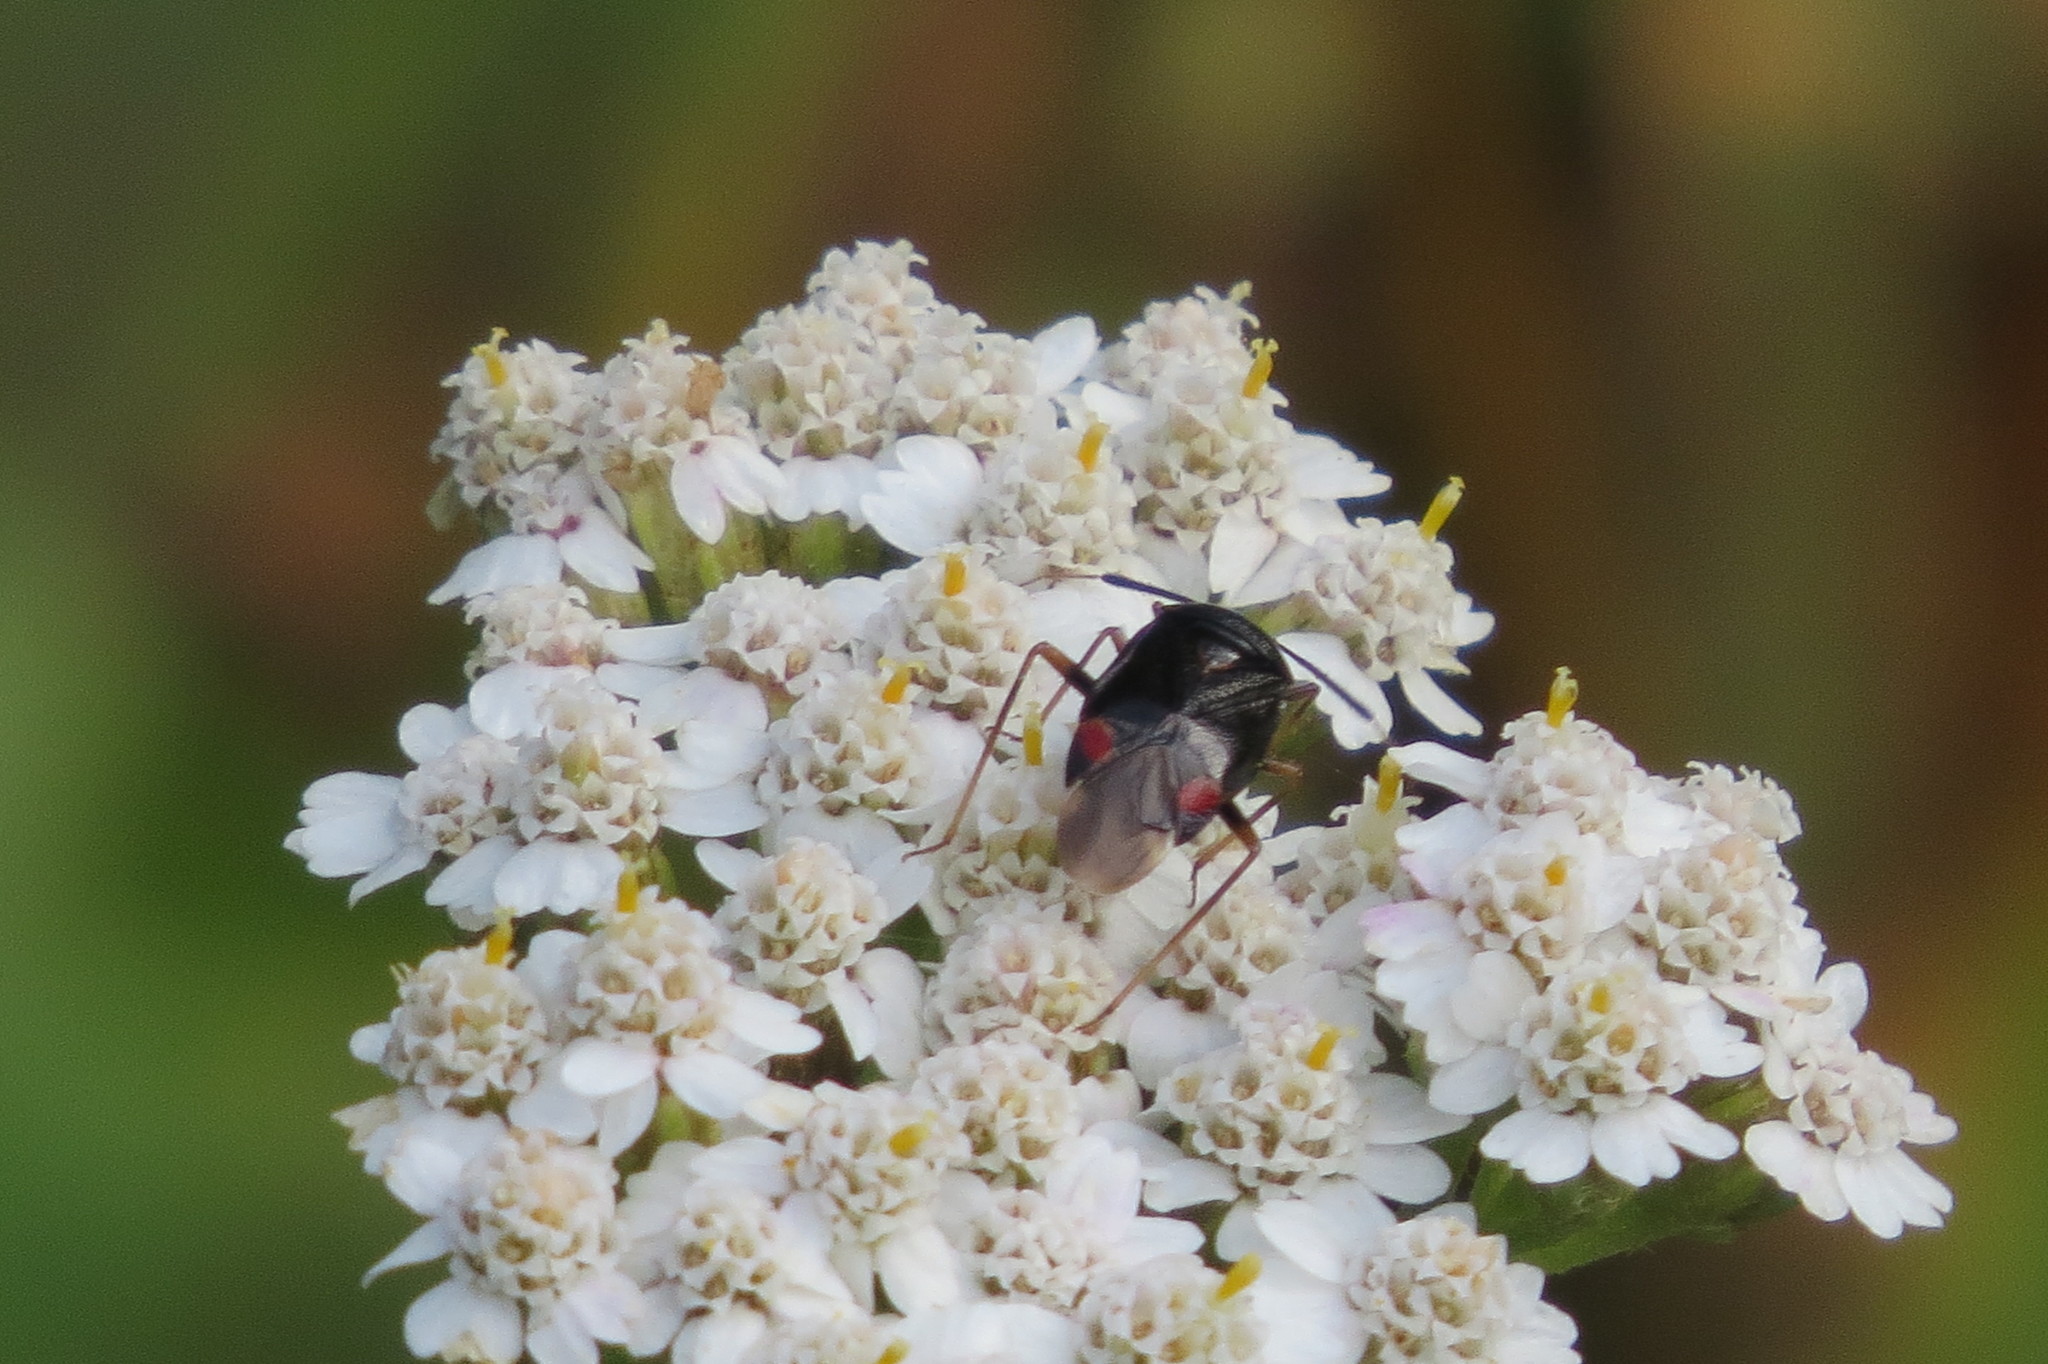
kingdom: Animalia
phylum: Arthropoda
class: Insecta
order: Hemiptera
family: Miridae
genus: Deraeocoris
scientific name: Deraeocoris ruber
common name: Plant bug
